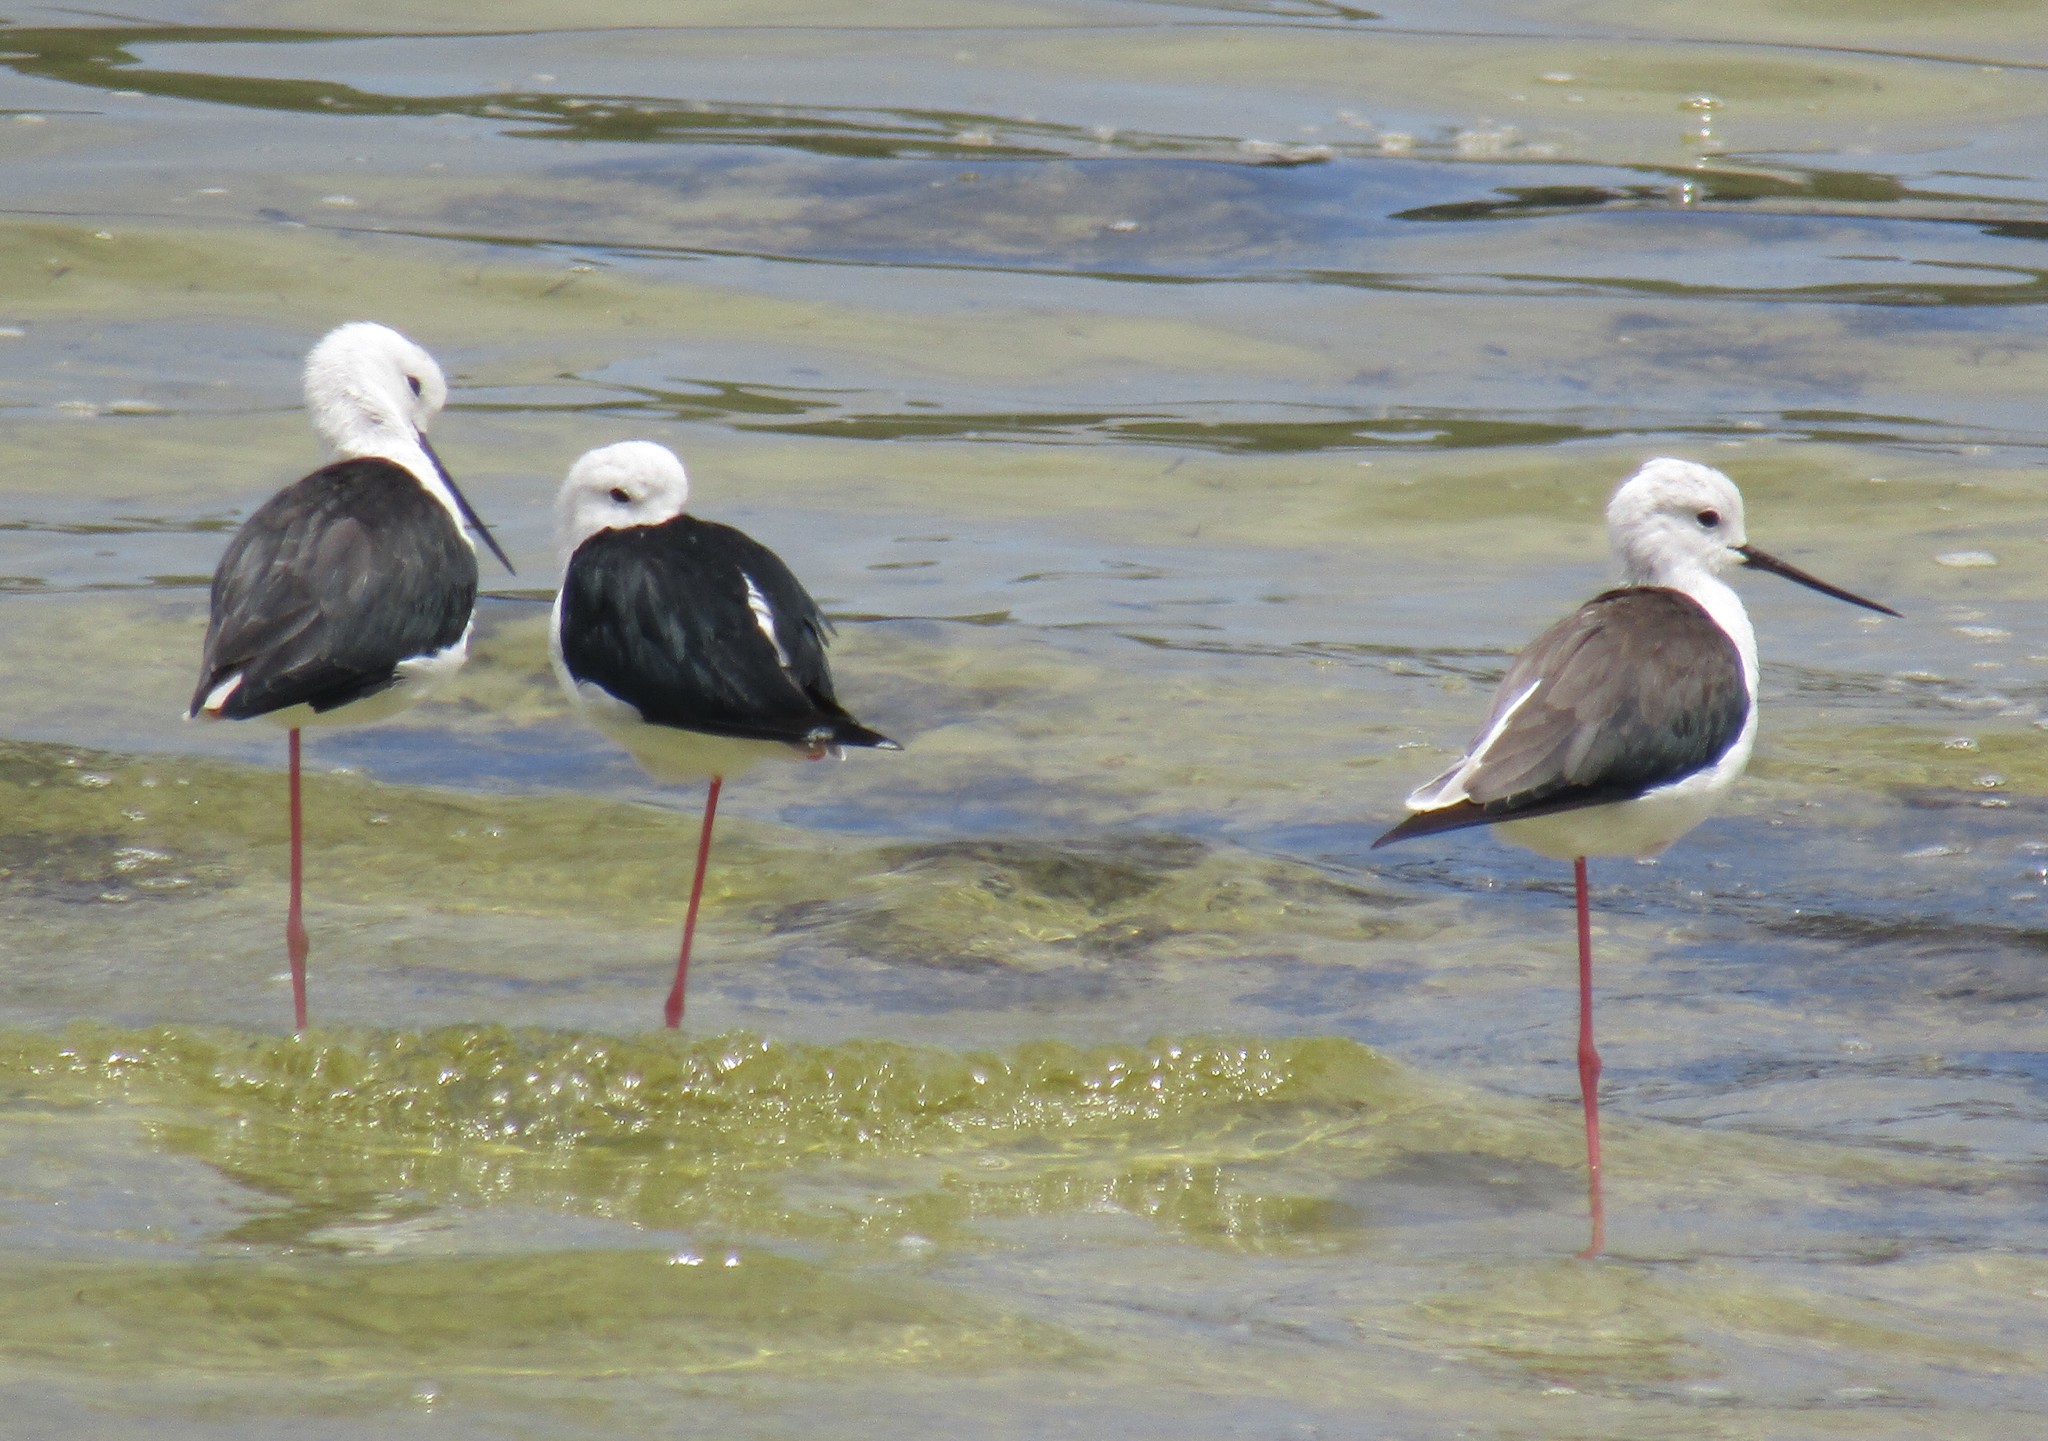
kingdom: Animalia
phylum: Chordata
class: Aves
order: Charadriiformes
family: Recurvirostridae
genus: Himantopus
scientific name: Himantopus himantopus
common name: Black-winged stilt
